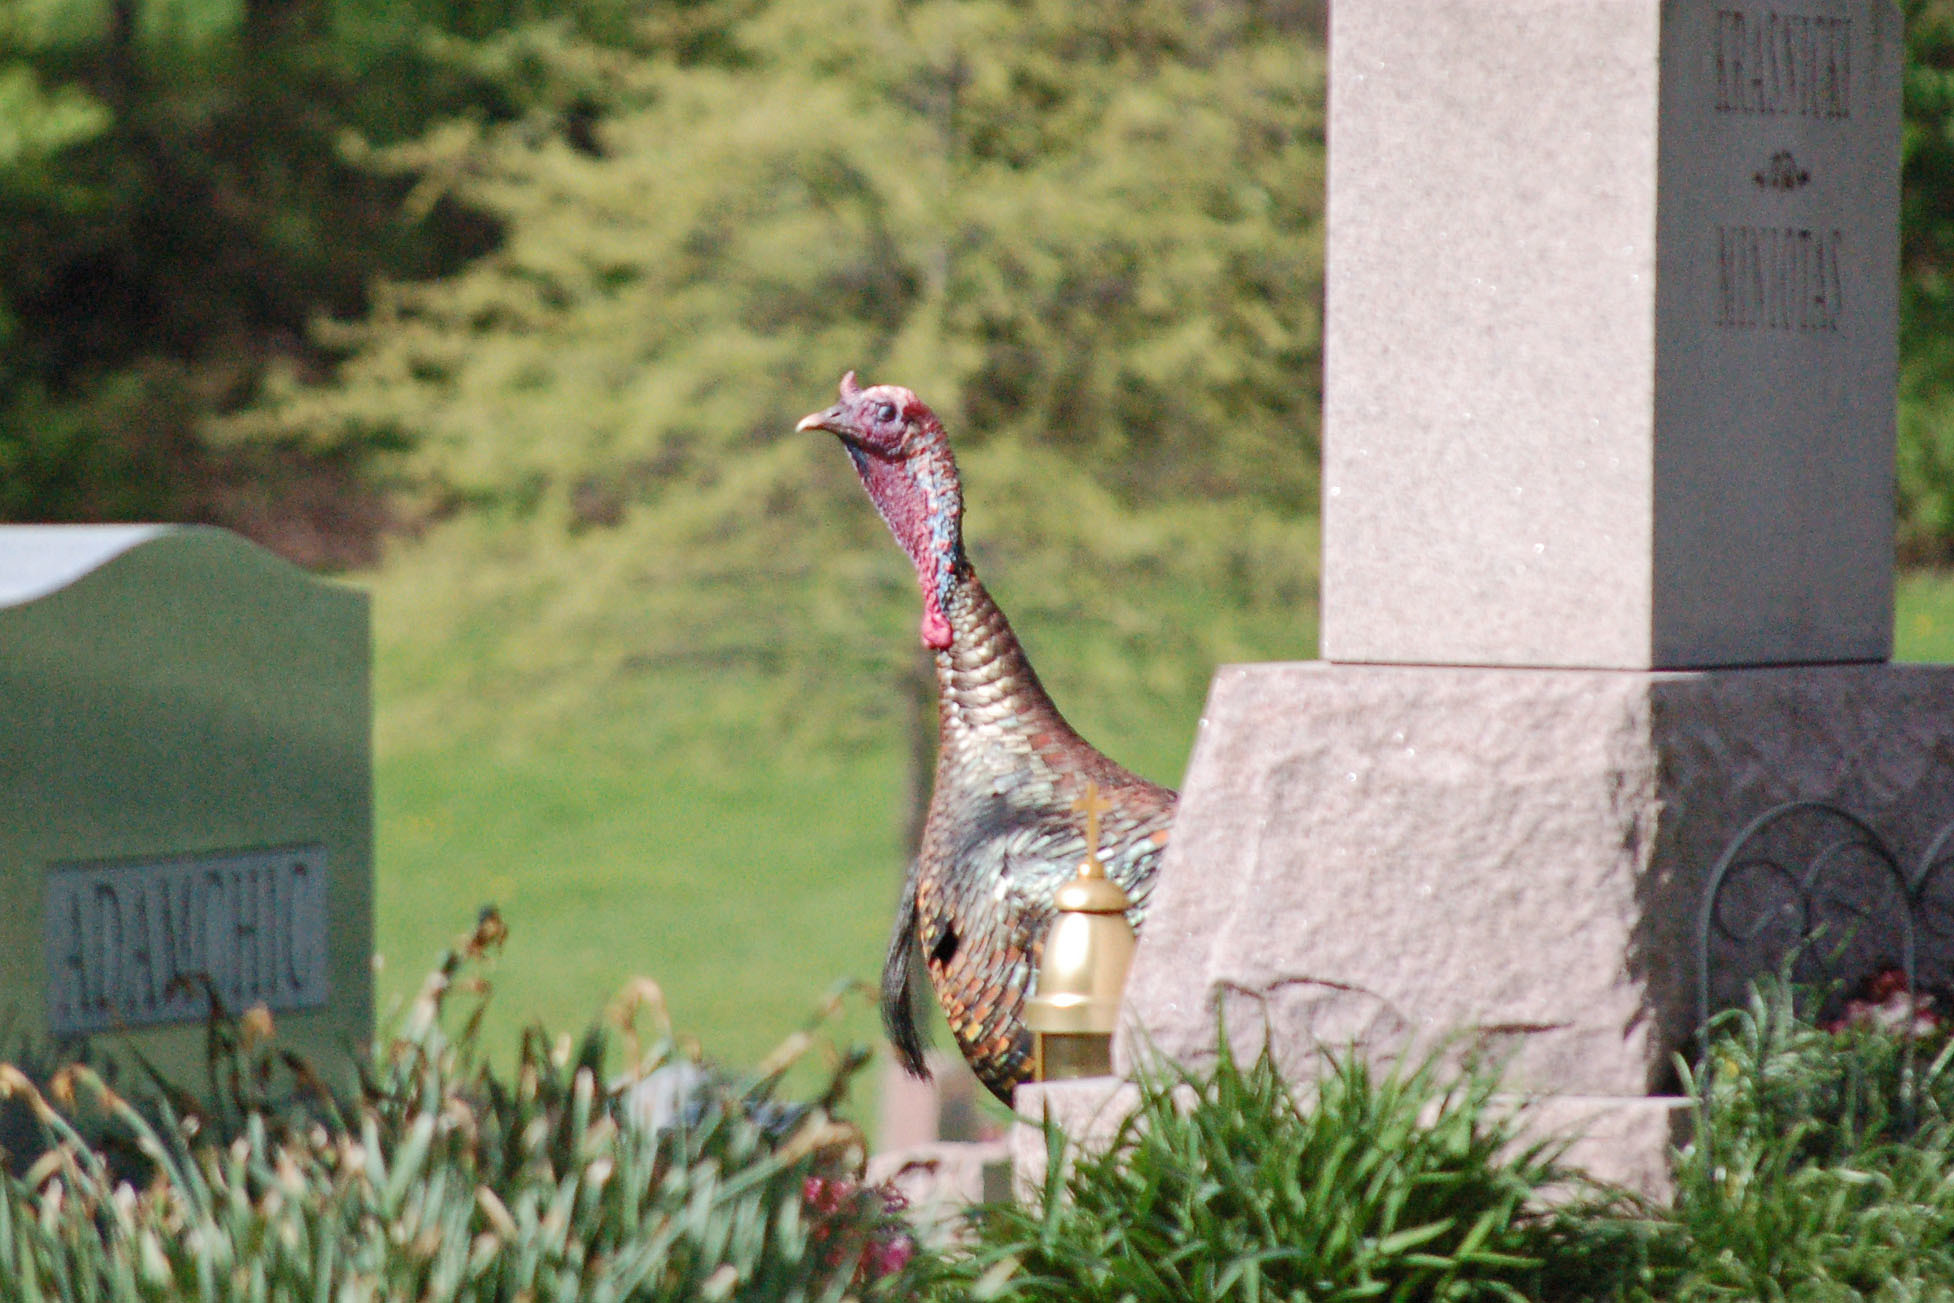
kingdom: Animalia
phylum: Chordata
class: Aves
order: Galliformes
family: Phasianidae
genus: Meleagris
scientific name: Meleagris gallopavo
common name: Wild turkey
